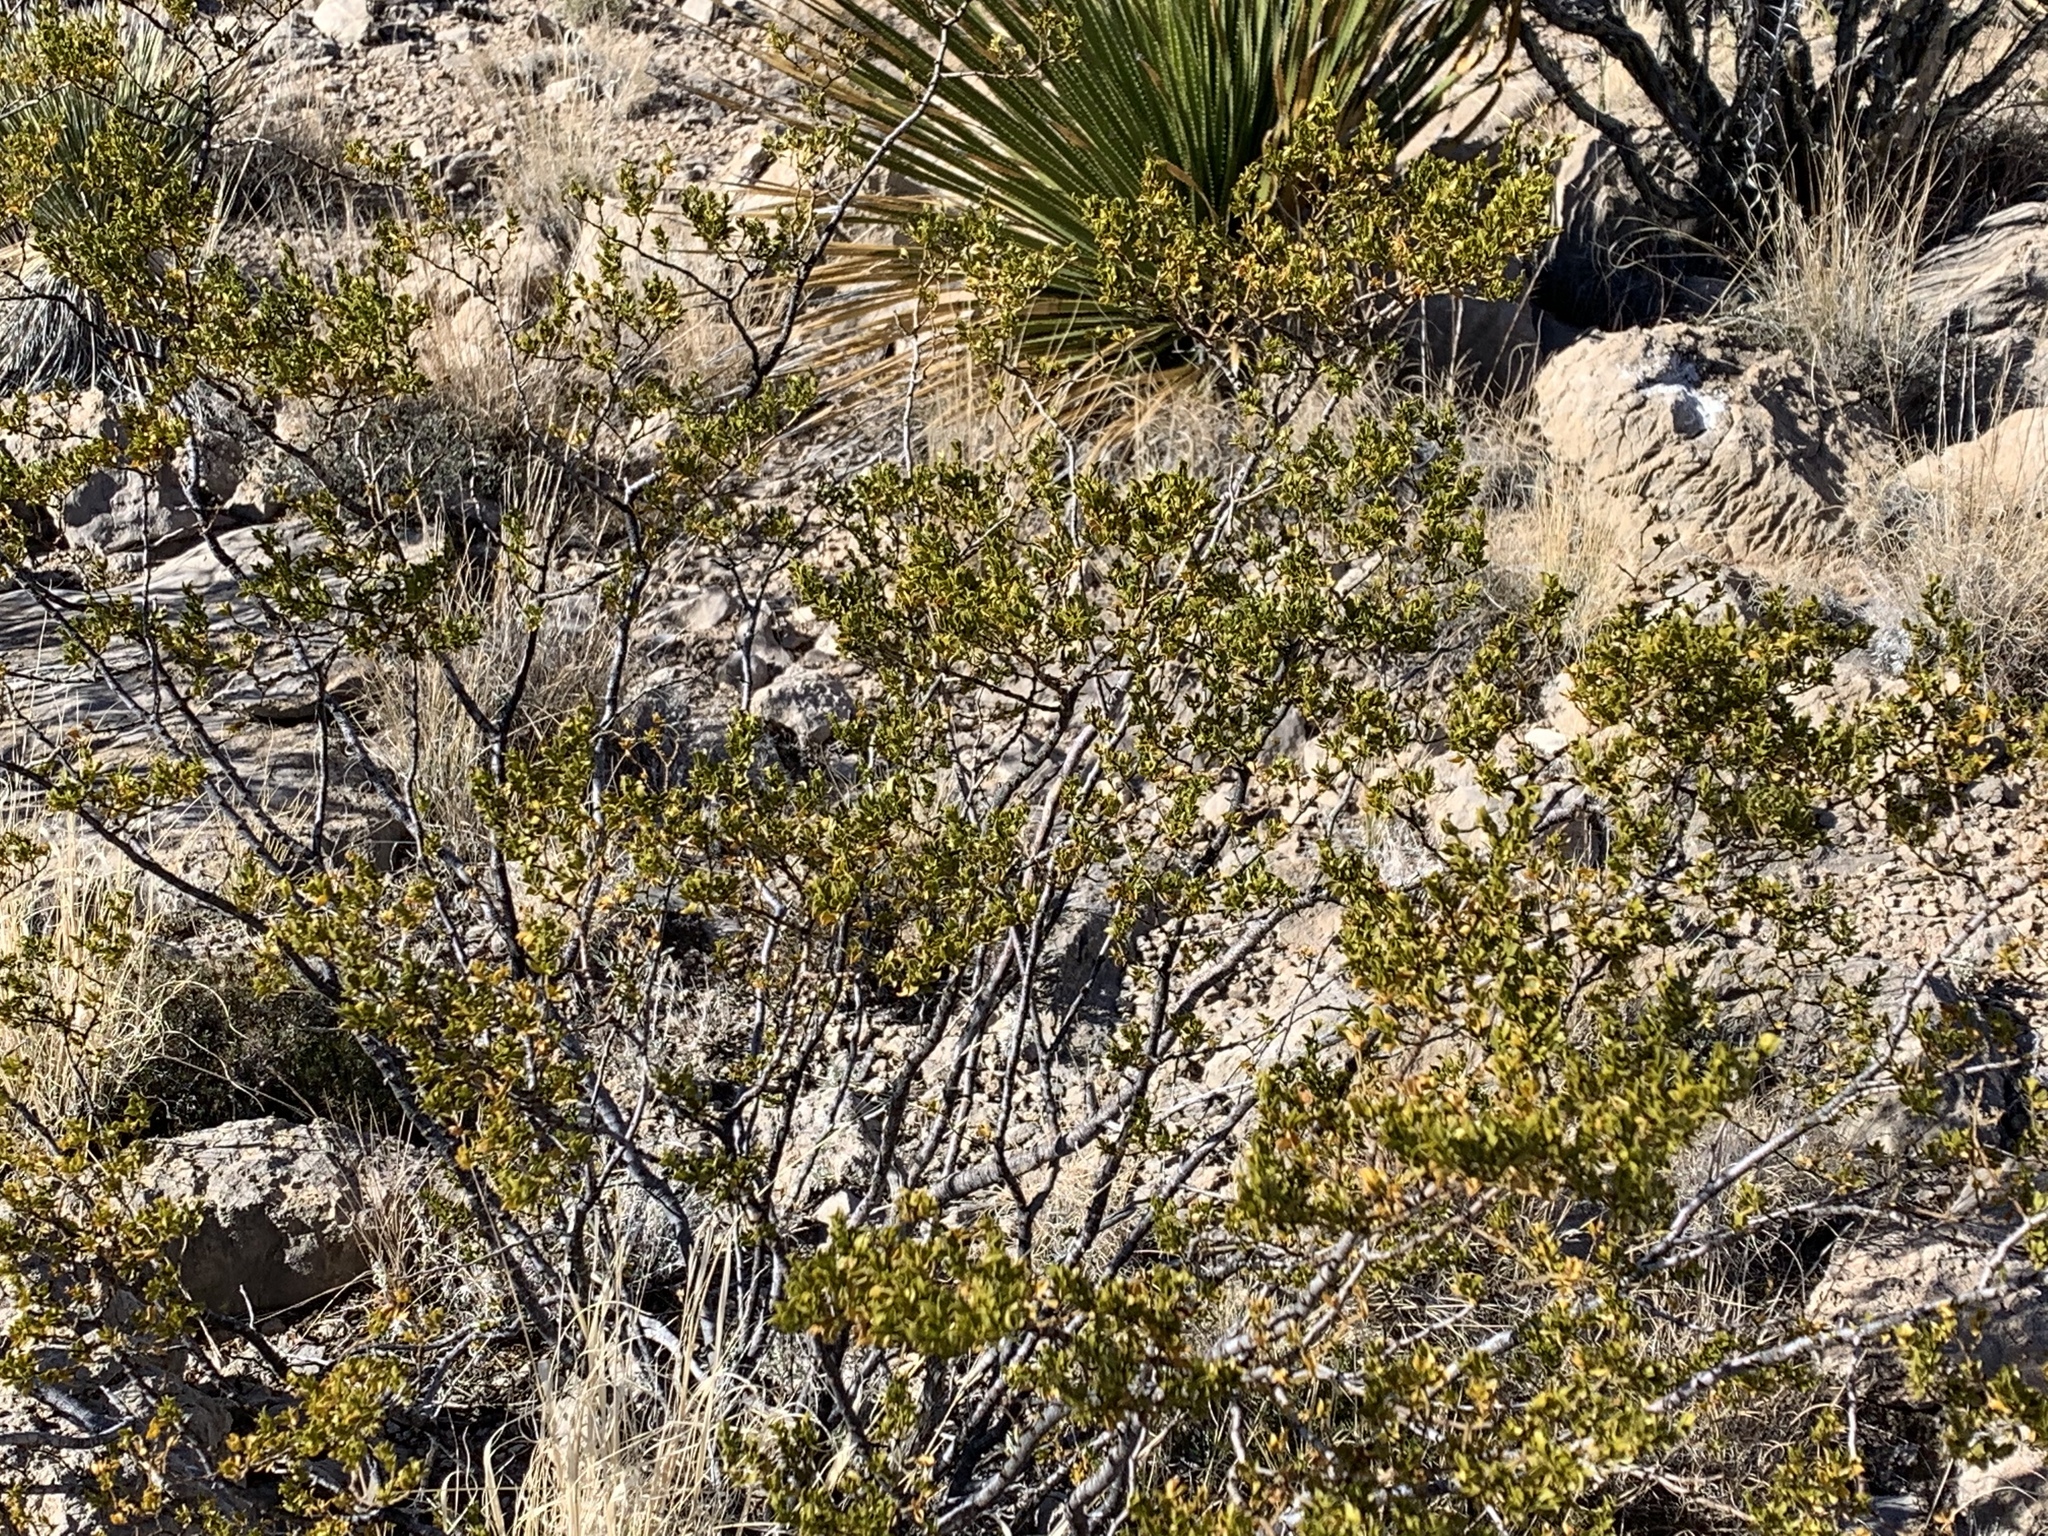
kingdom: Plantae
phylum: Tracheophyta
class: Magnoliopsida
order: Zygophyllales
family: Zygophyllaceae
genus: Larrea
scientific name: Larrea tridentata
